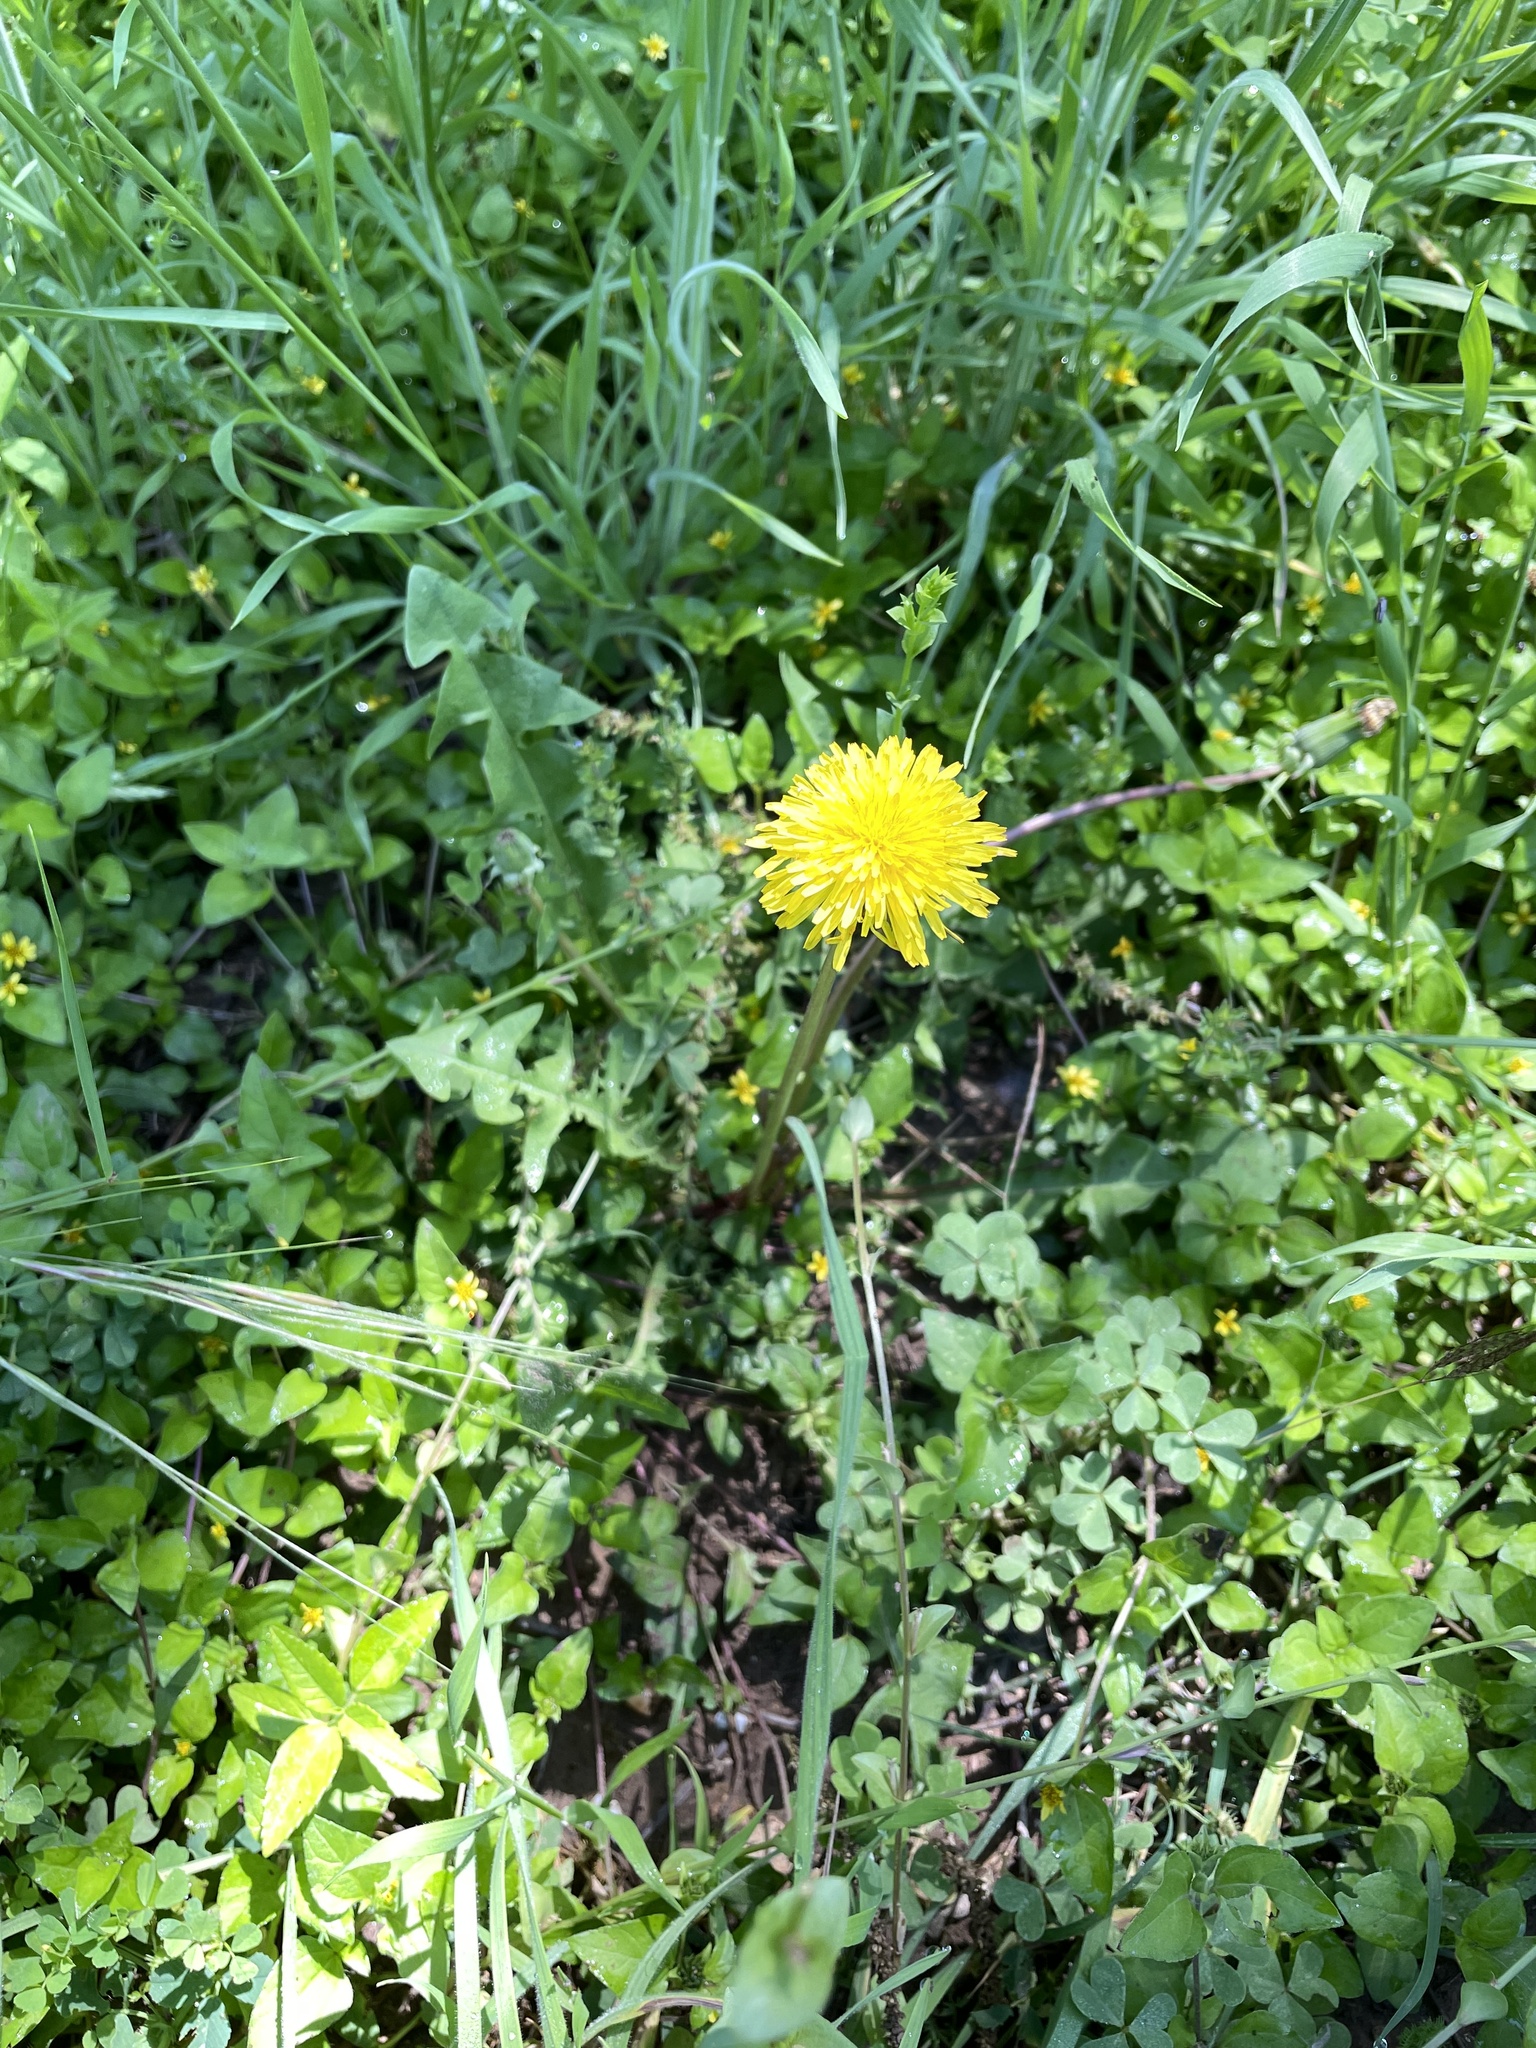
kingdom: Plantae
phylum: Tracheophyta
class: Magnoliopsida
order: Asterales
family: Asteraceae
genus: Taraxacum
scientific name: Taraxacum officinale
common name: Common dandelion
